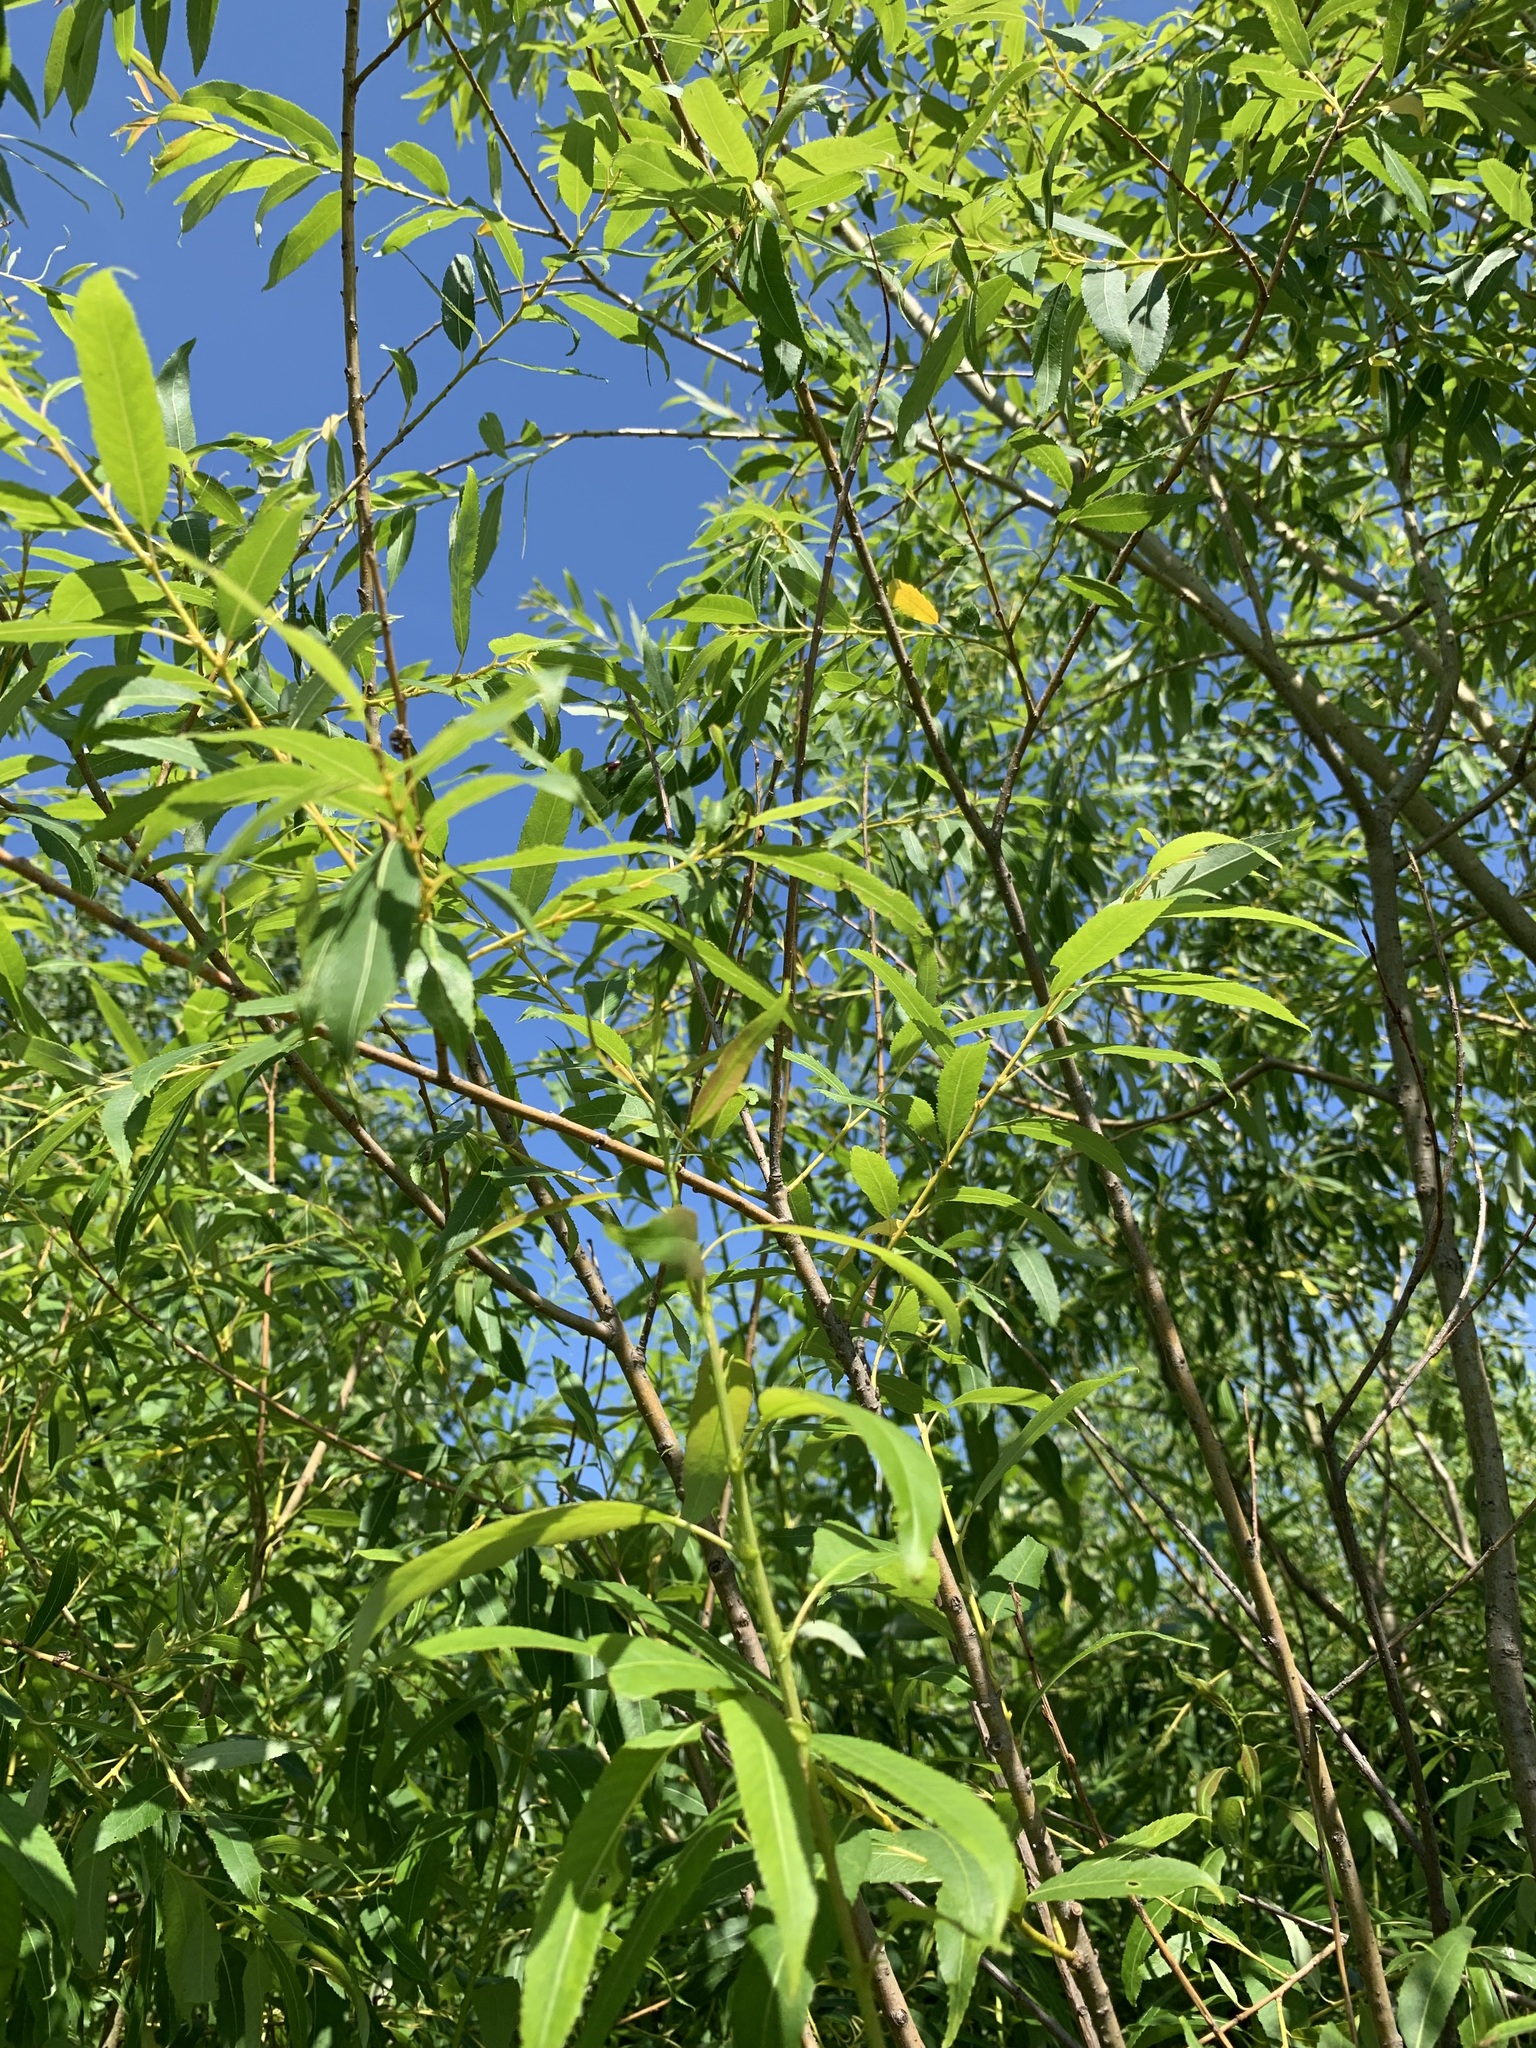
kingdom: Plantae
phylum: Tracheophyta
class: Magnoliopsida
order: Malpighiales
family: Salicaceae
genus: Salix
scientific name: Salix triandra
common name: Almond willow
